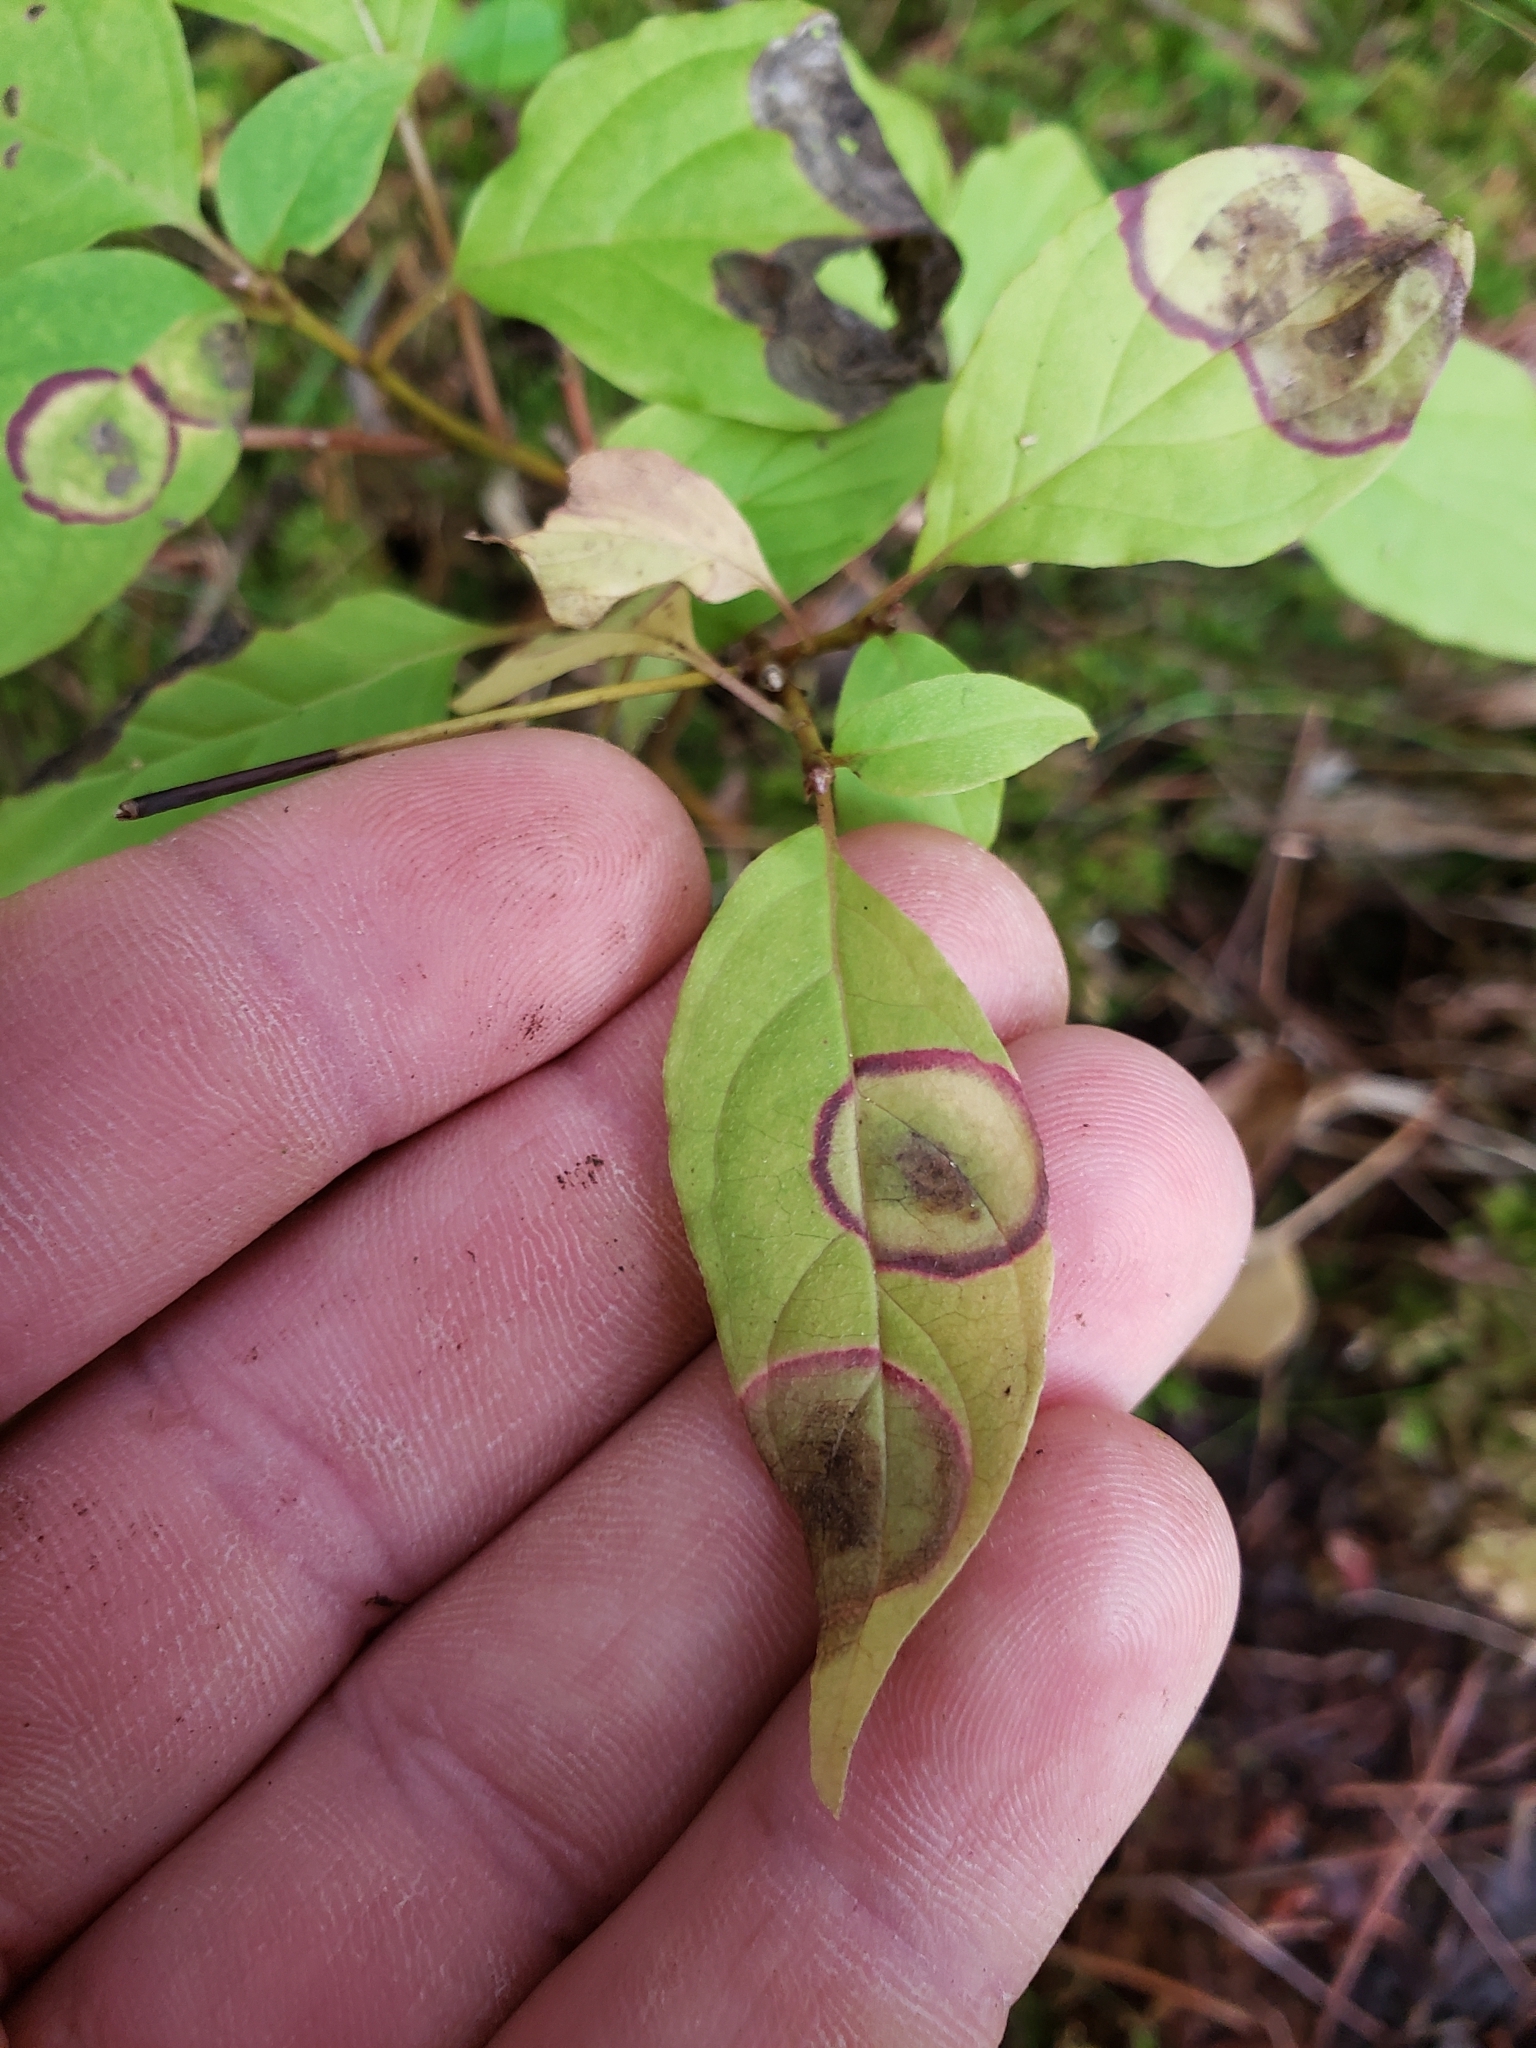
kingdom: Animalia
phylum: Arthropoda
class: Insecta
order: Diptera
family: Cecidomyiidae
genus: Parallelodiplosis
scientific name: Parallelodiplosis subtruncata
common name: Dogwood eyespot gall midge
